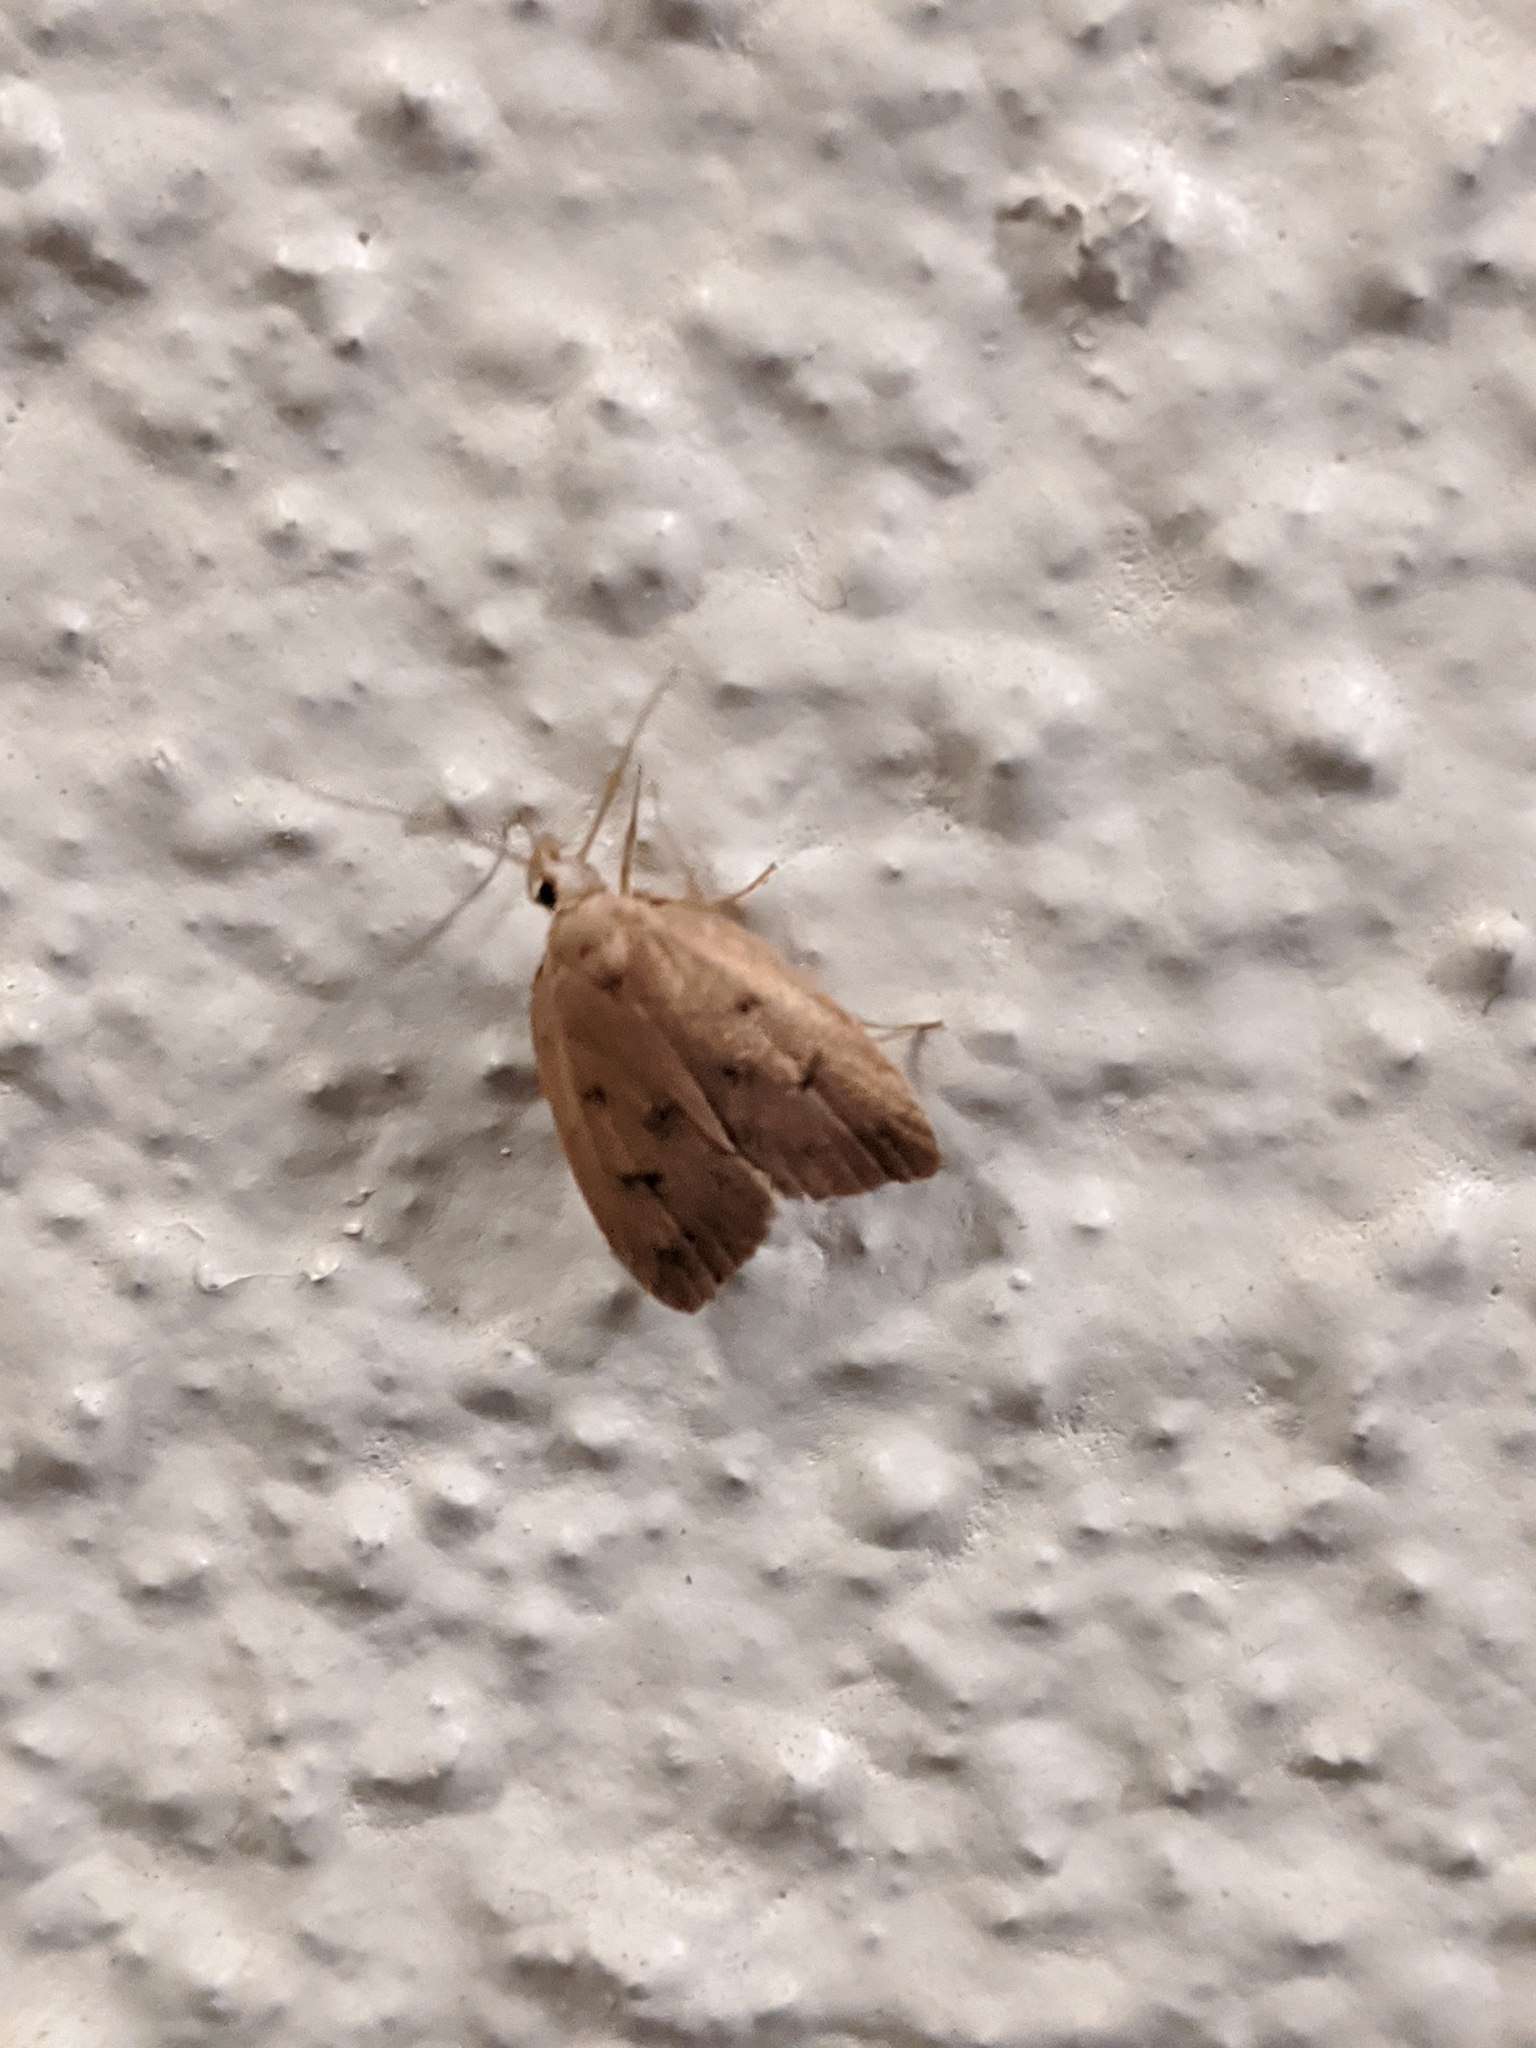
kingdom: Animalia
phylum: Arthropoda
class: Insecta
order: Lepidoptera
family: Peleopodidae
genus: Machimia
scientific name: Machimia tentoriferella
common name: Gold-striped leaftier moth
